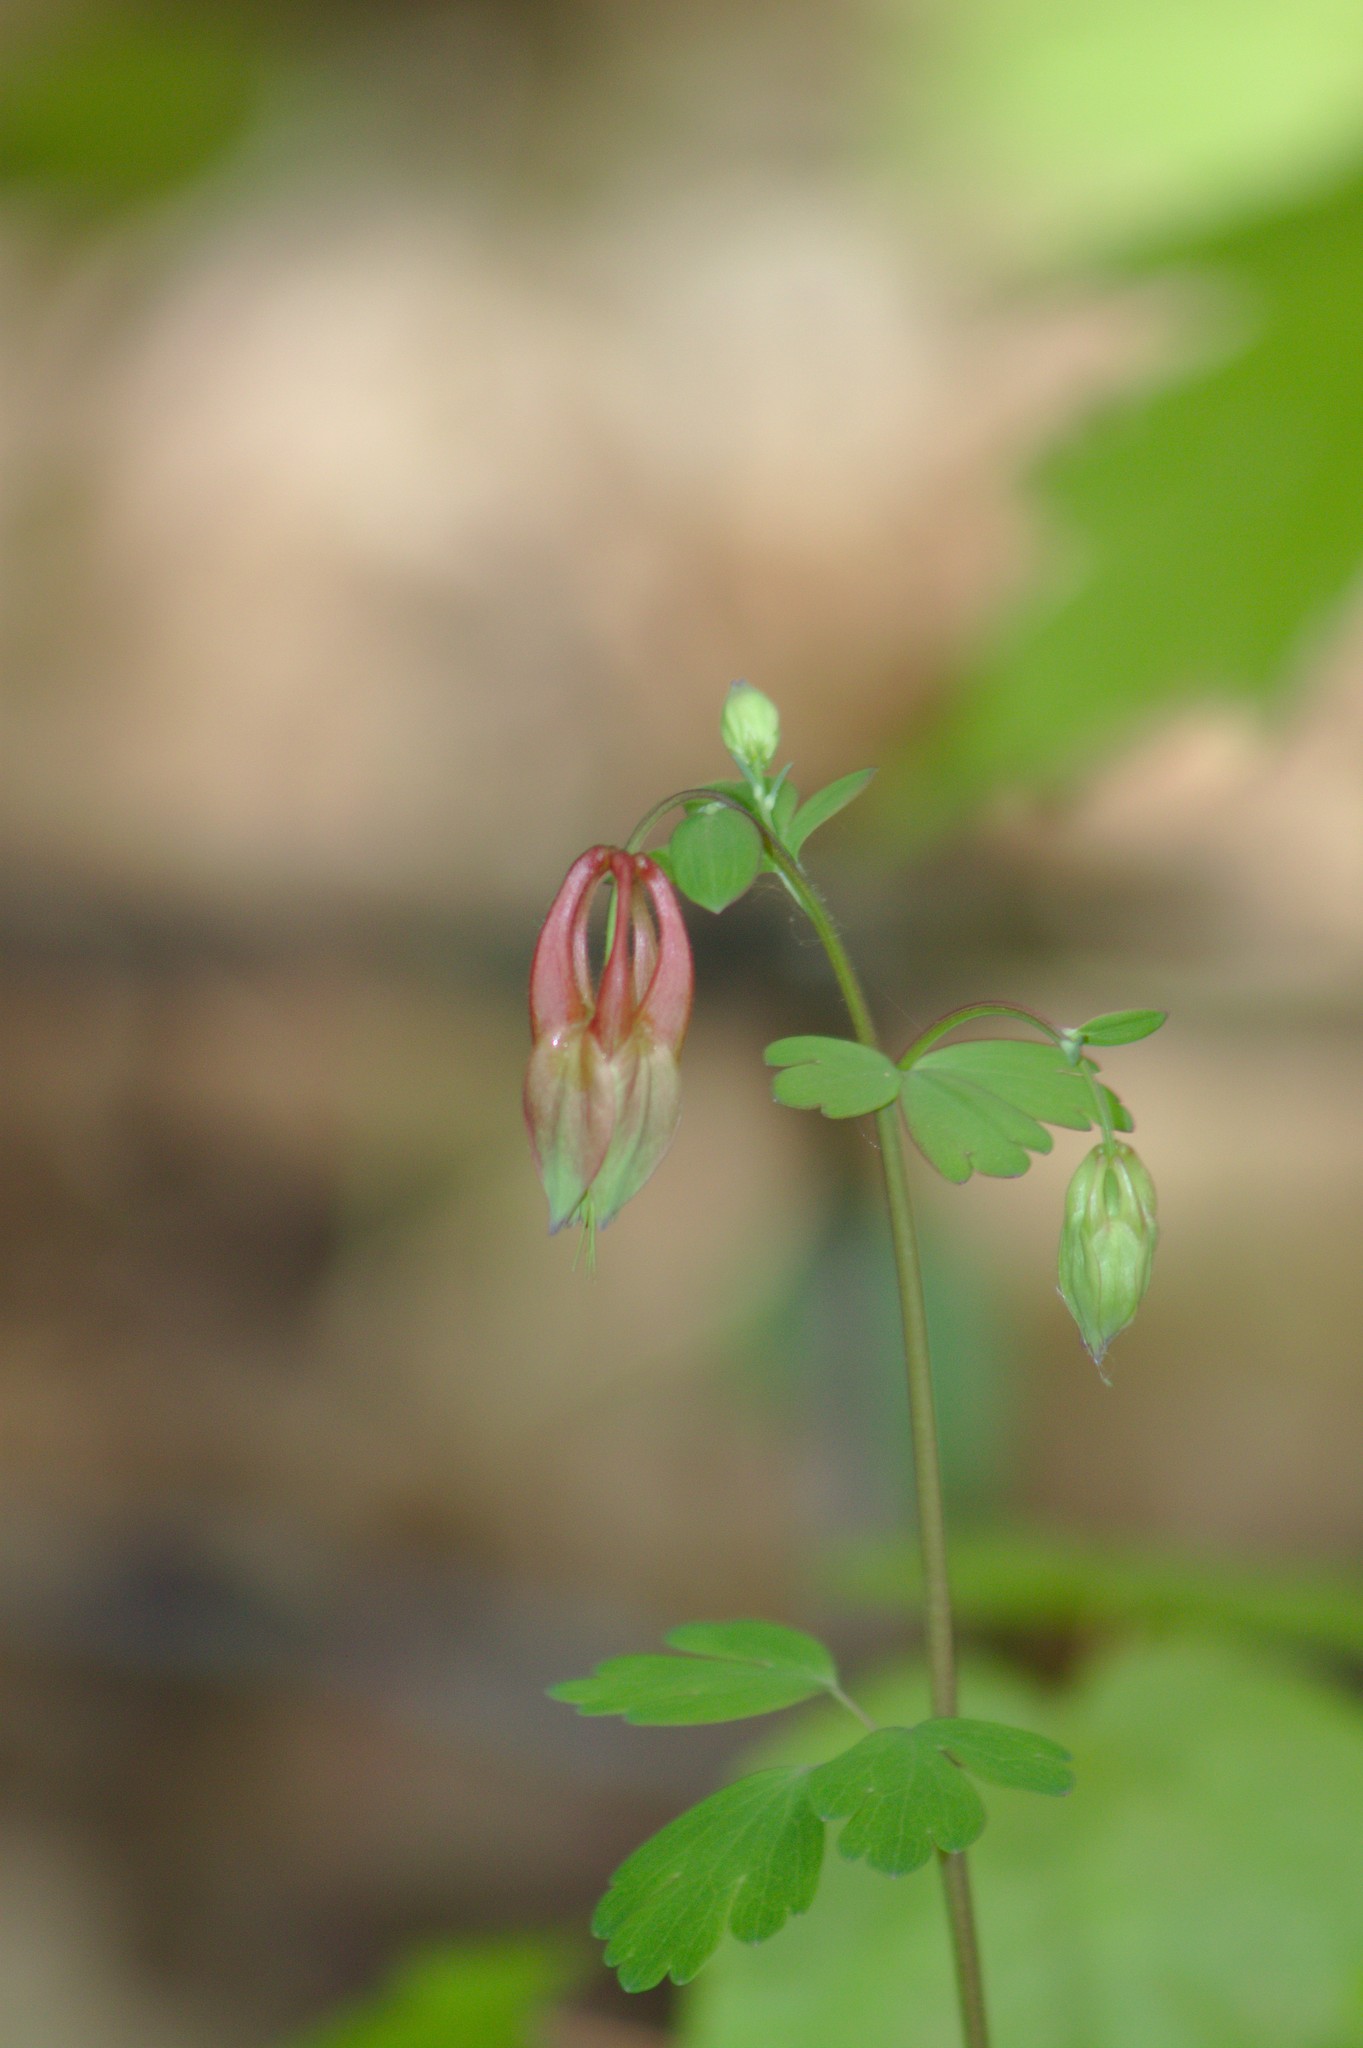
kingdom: Plantae
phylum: Tracheophyta
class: Magnoliopsida
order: Ranunculales
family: Ranunculaceae
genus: Aquilegia
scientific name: Aquilegia canadensis
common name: American columbine
